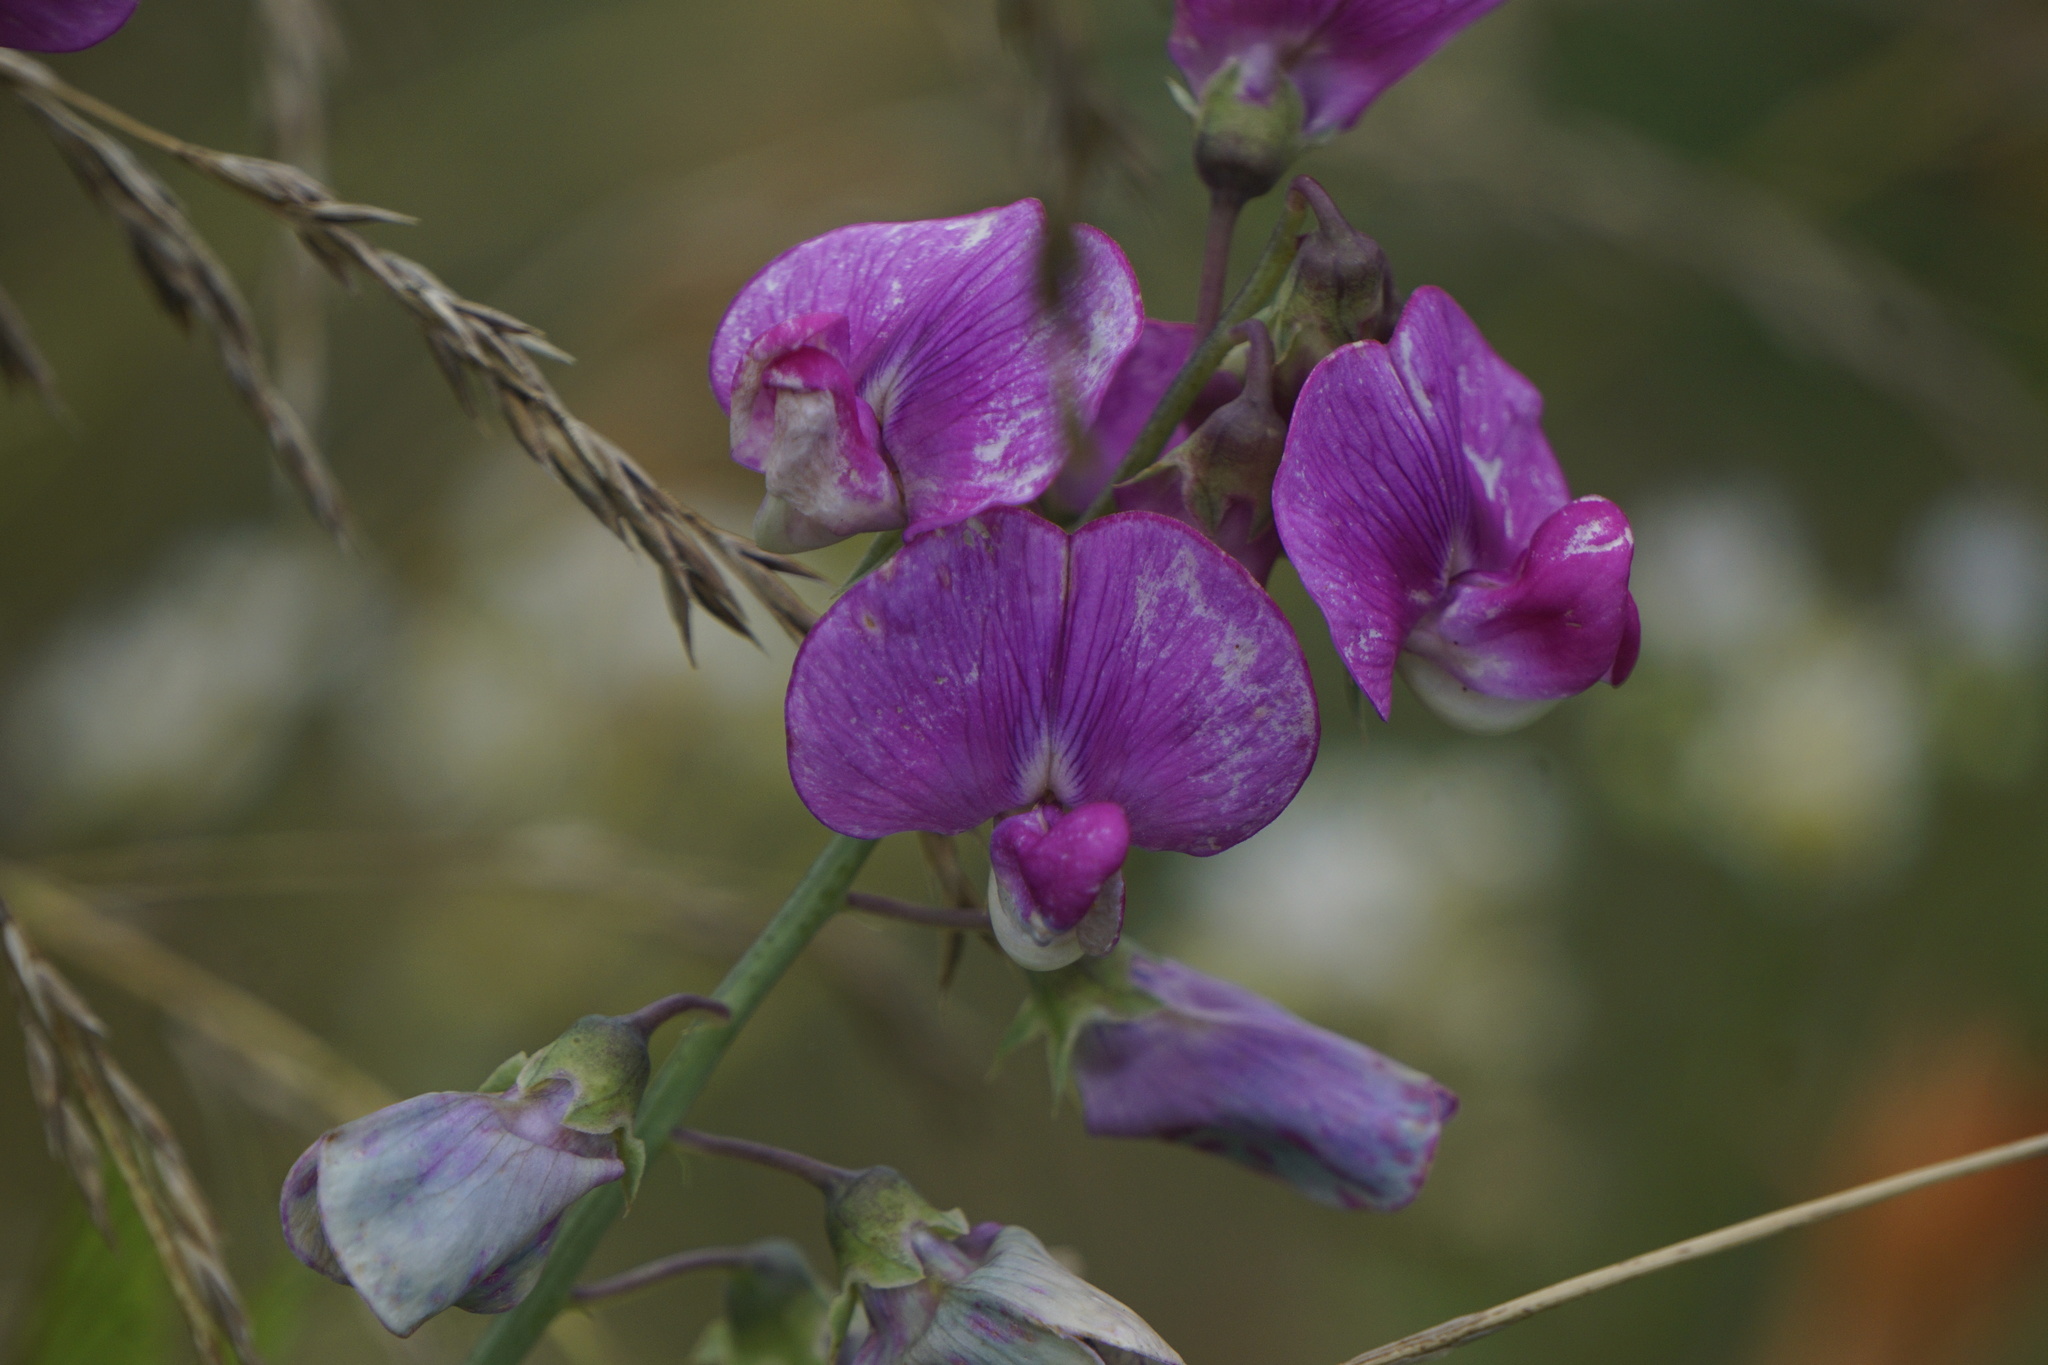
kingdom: Plantae
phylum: Tracheophyta
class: Magnoliopsida
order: Fabales
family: Fabaceae
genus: Lathyrus
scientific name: Lathyrus latifolius
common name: Perennial pea
